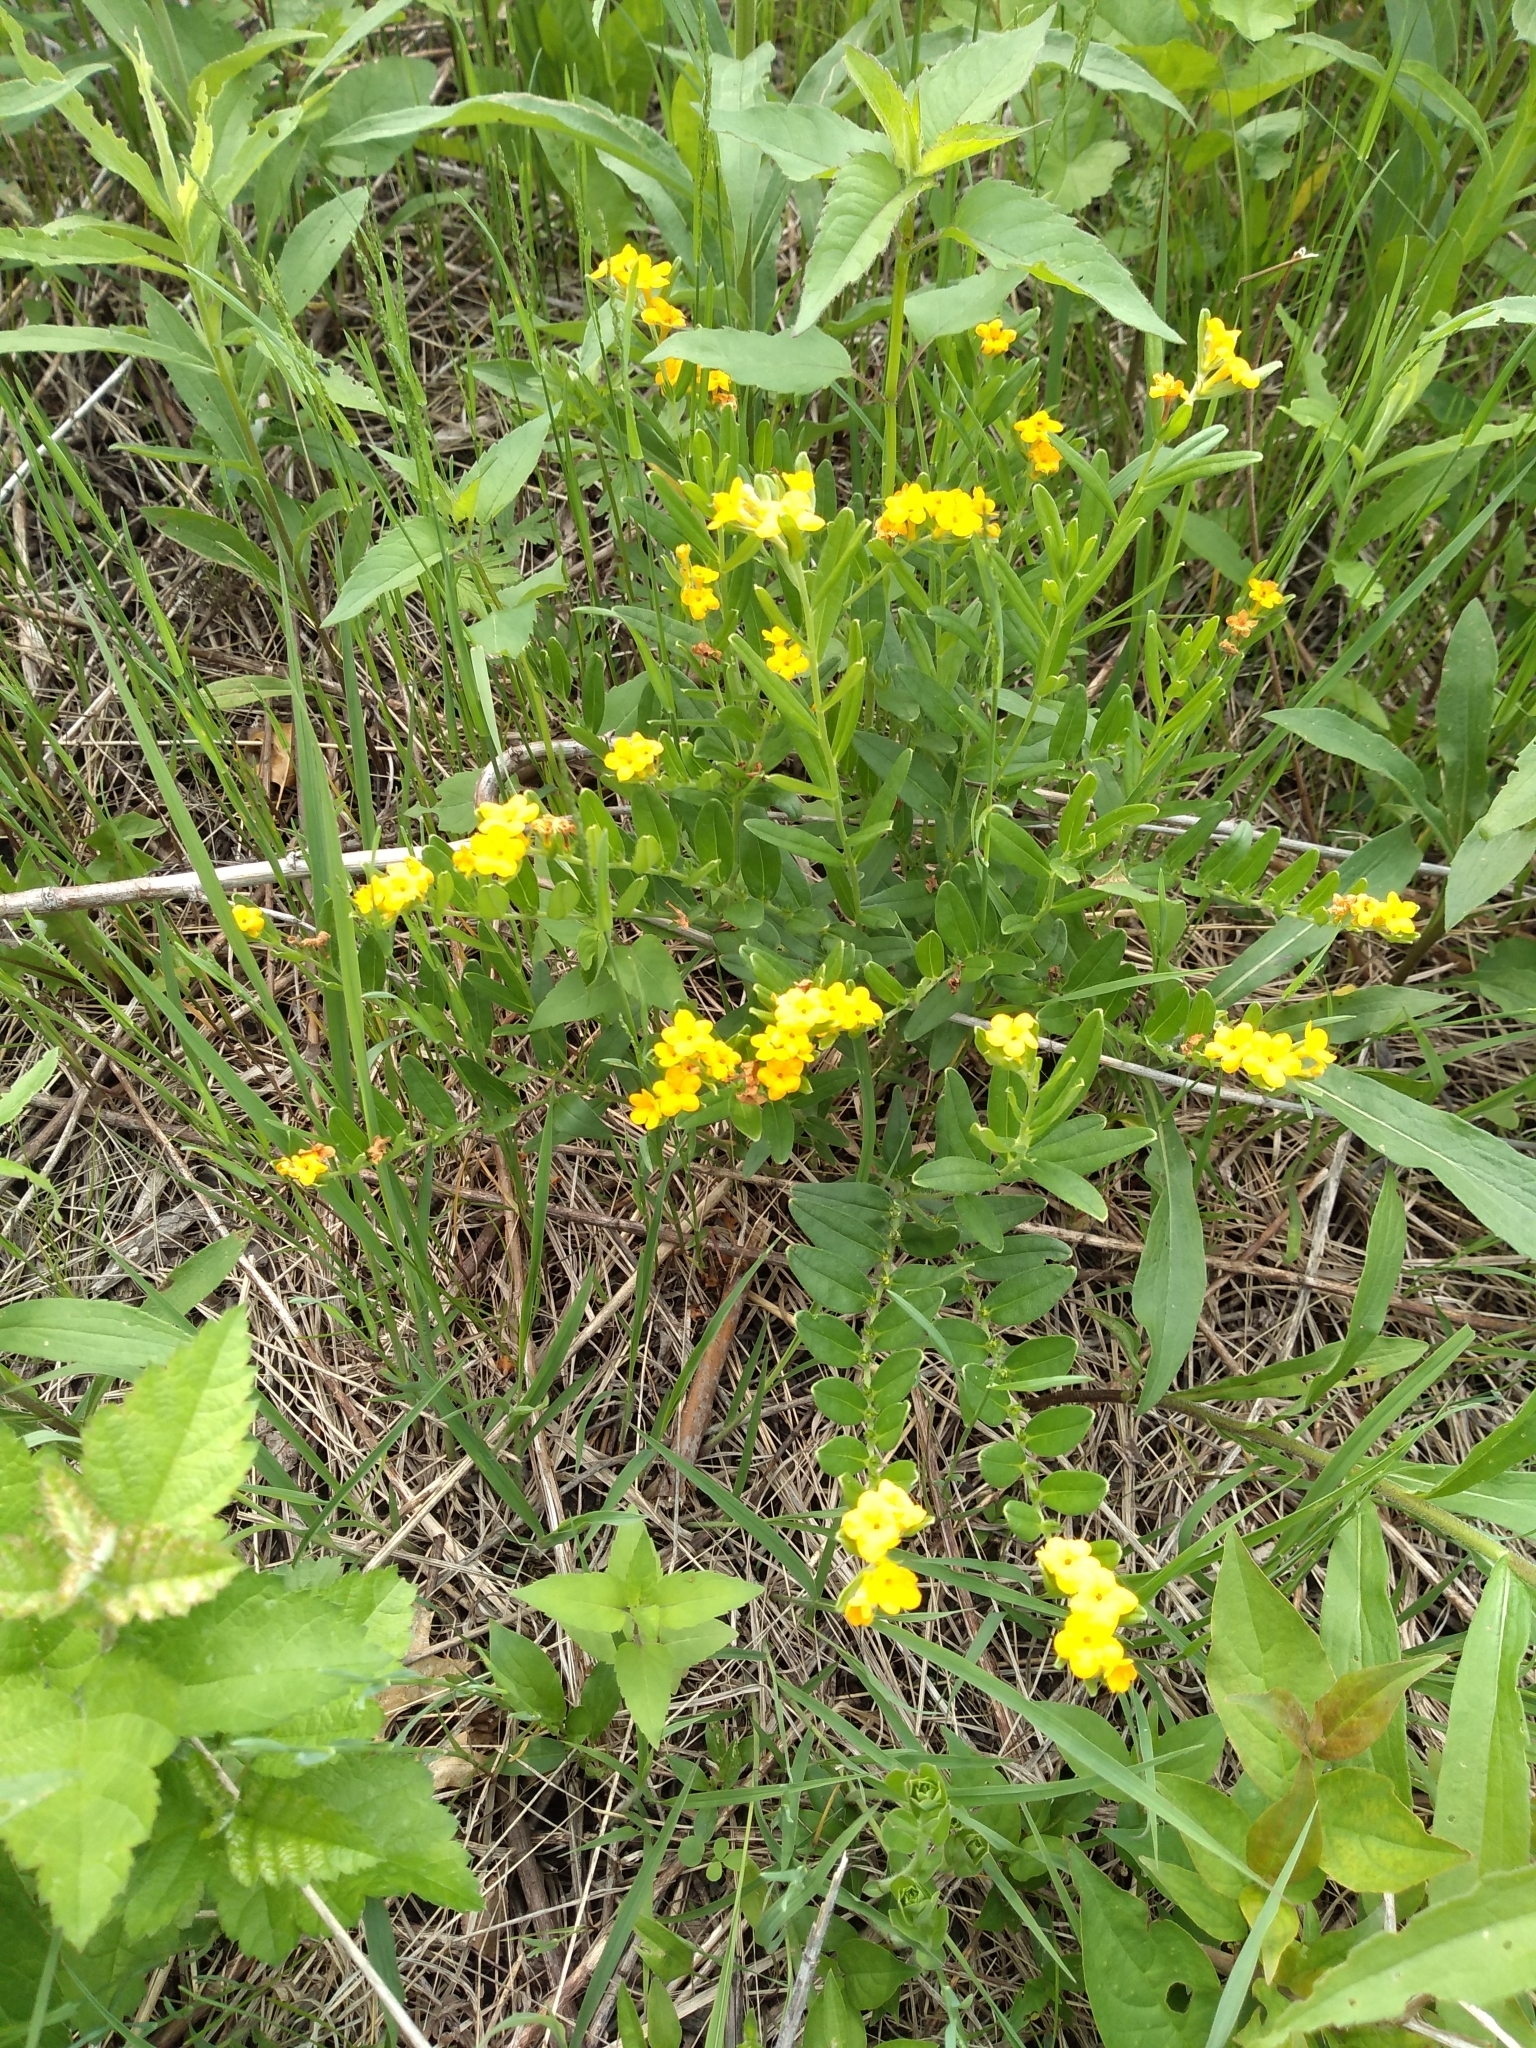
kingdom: Plantae
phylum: Tracheophyta
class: Magnoliopsida
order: Boraginales
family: Boraginaceae
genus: Lithospermum
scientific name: Lithospermum canescens
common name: Hoary puccoon
